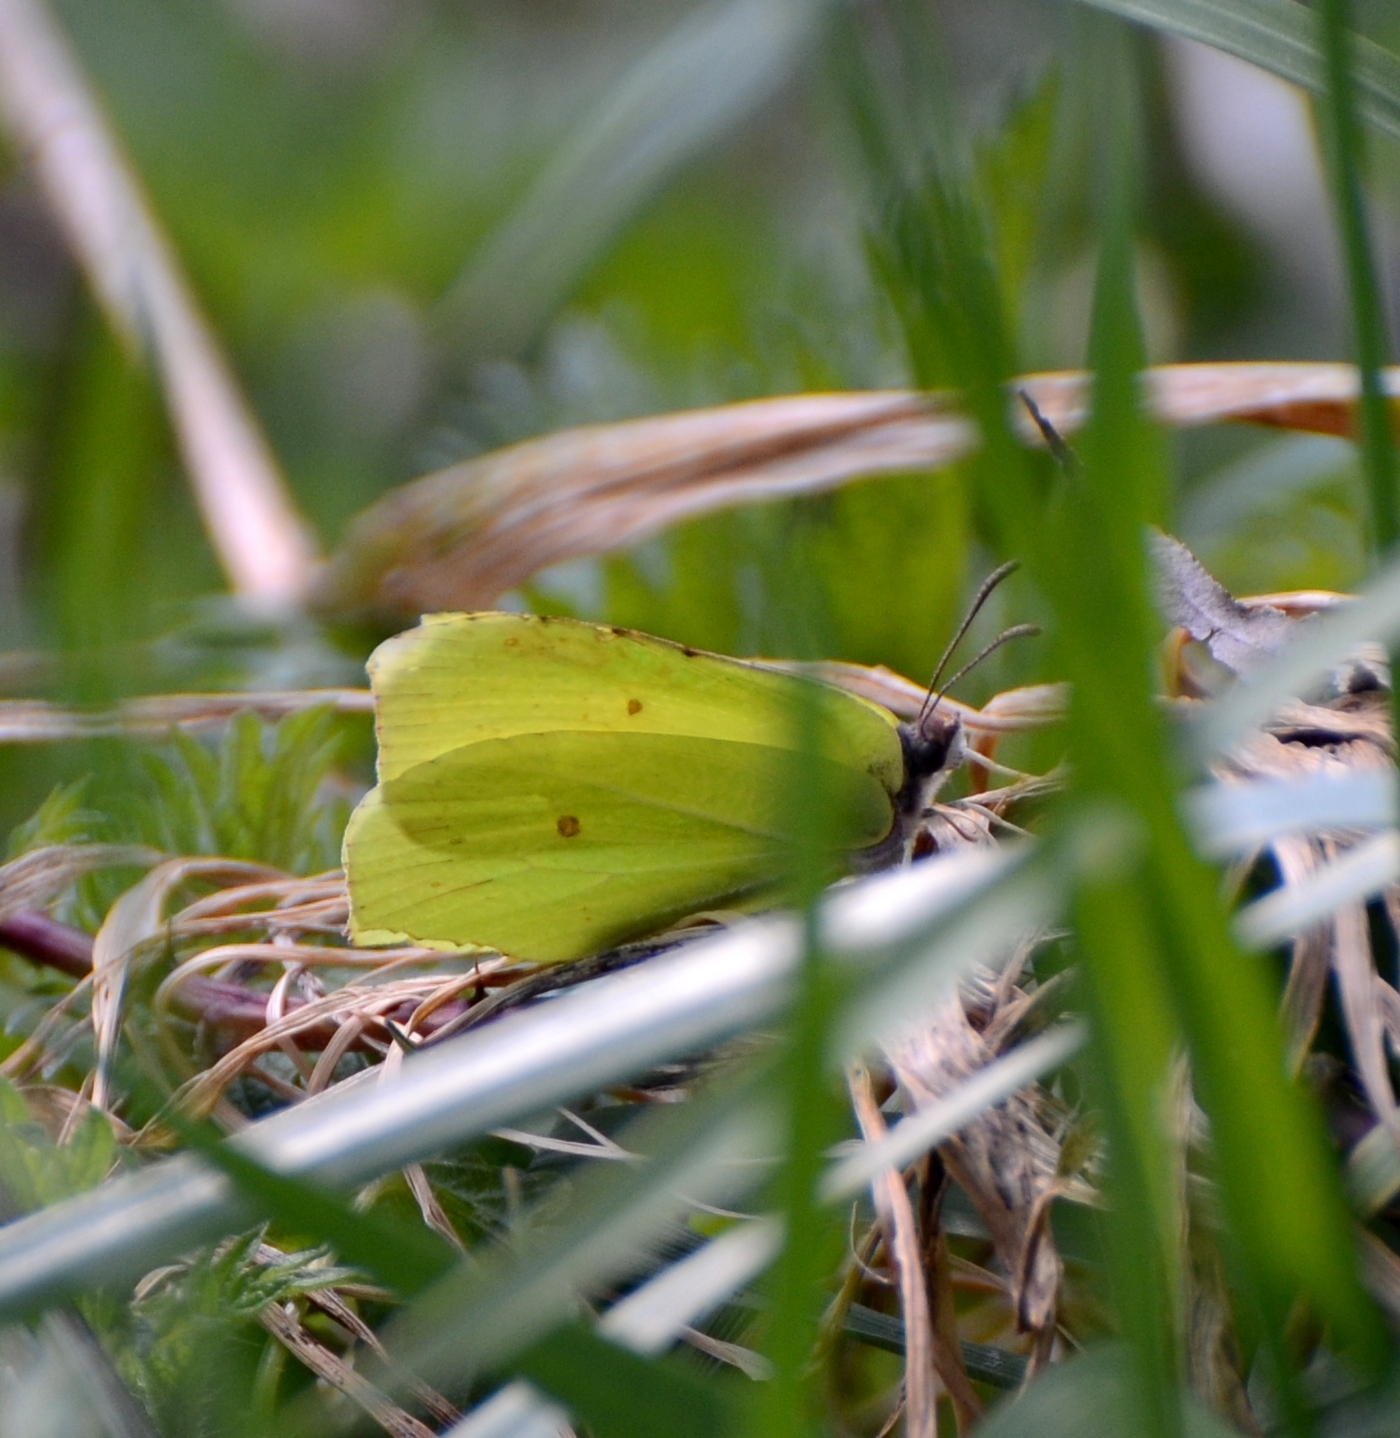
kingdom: Animalia
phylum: Arthropoda
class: Insecta
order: Lepidoptera
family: Pieridae
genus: Gonepteryx
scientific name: Gonepteryx rhamni
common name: Brimstone
